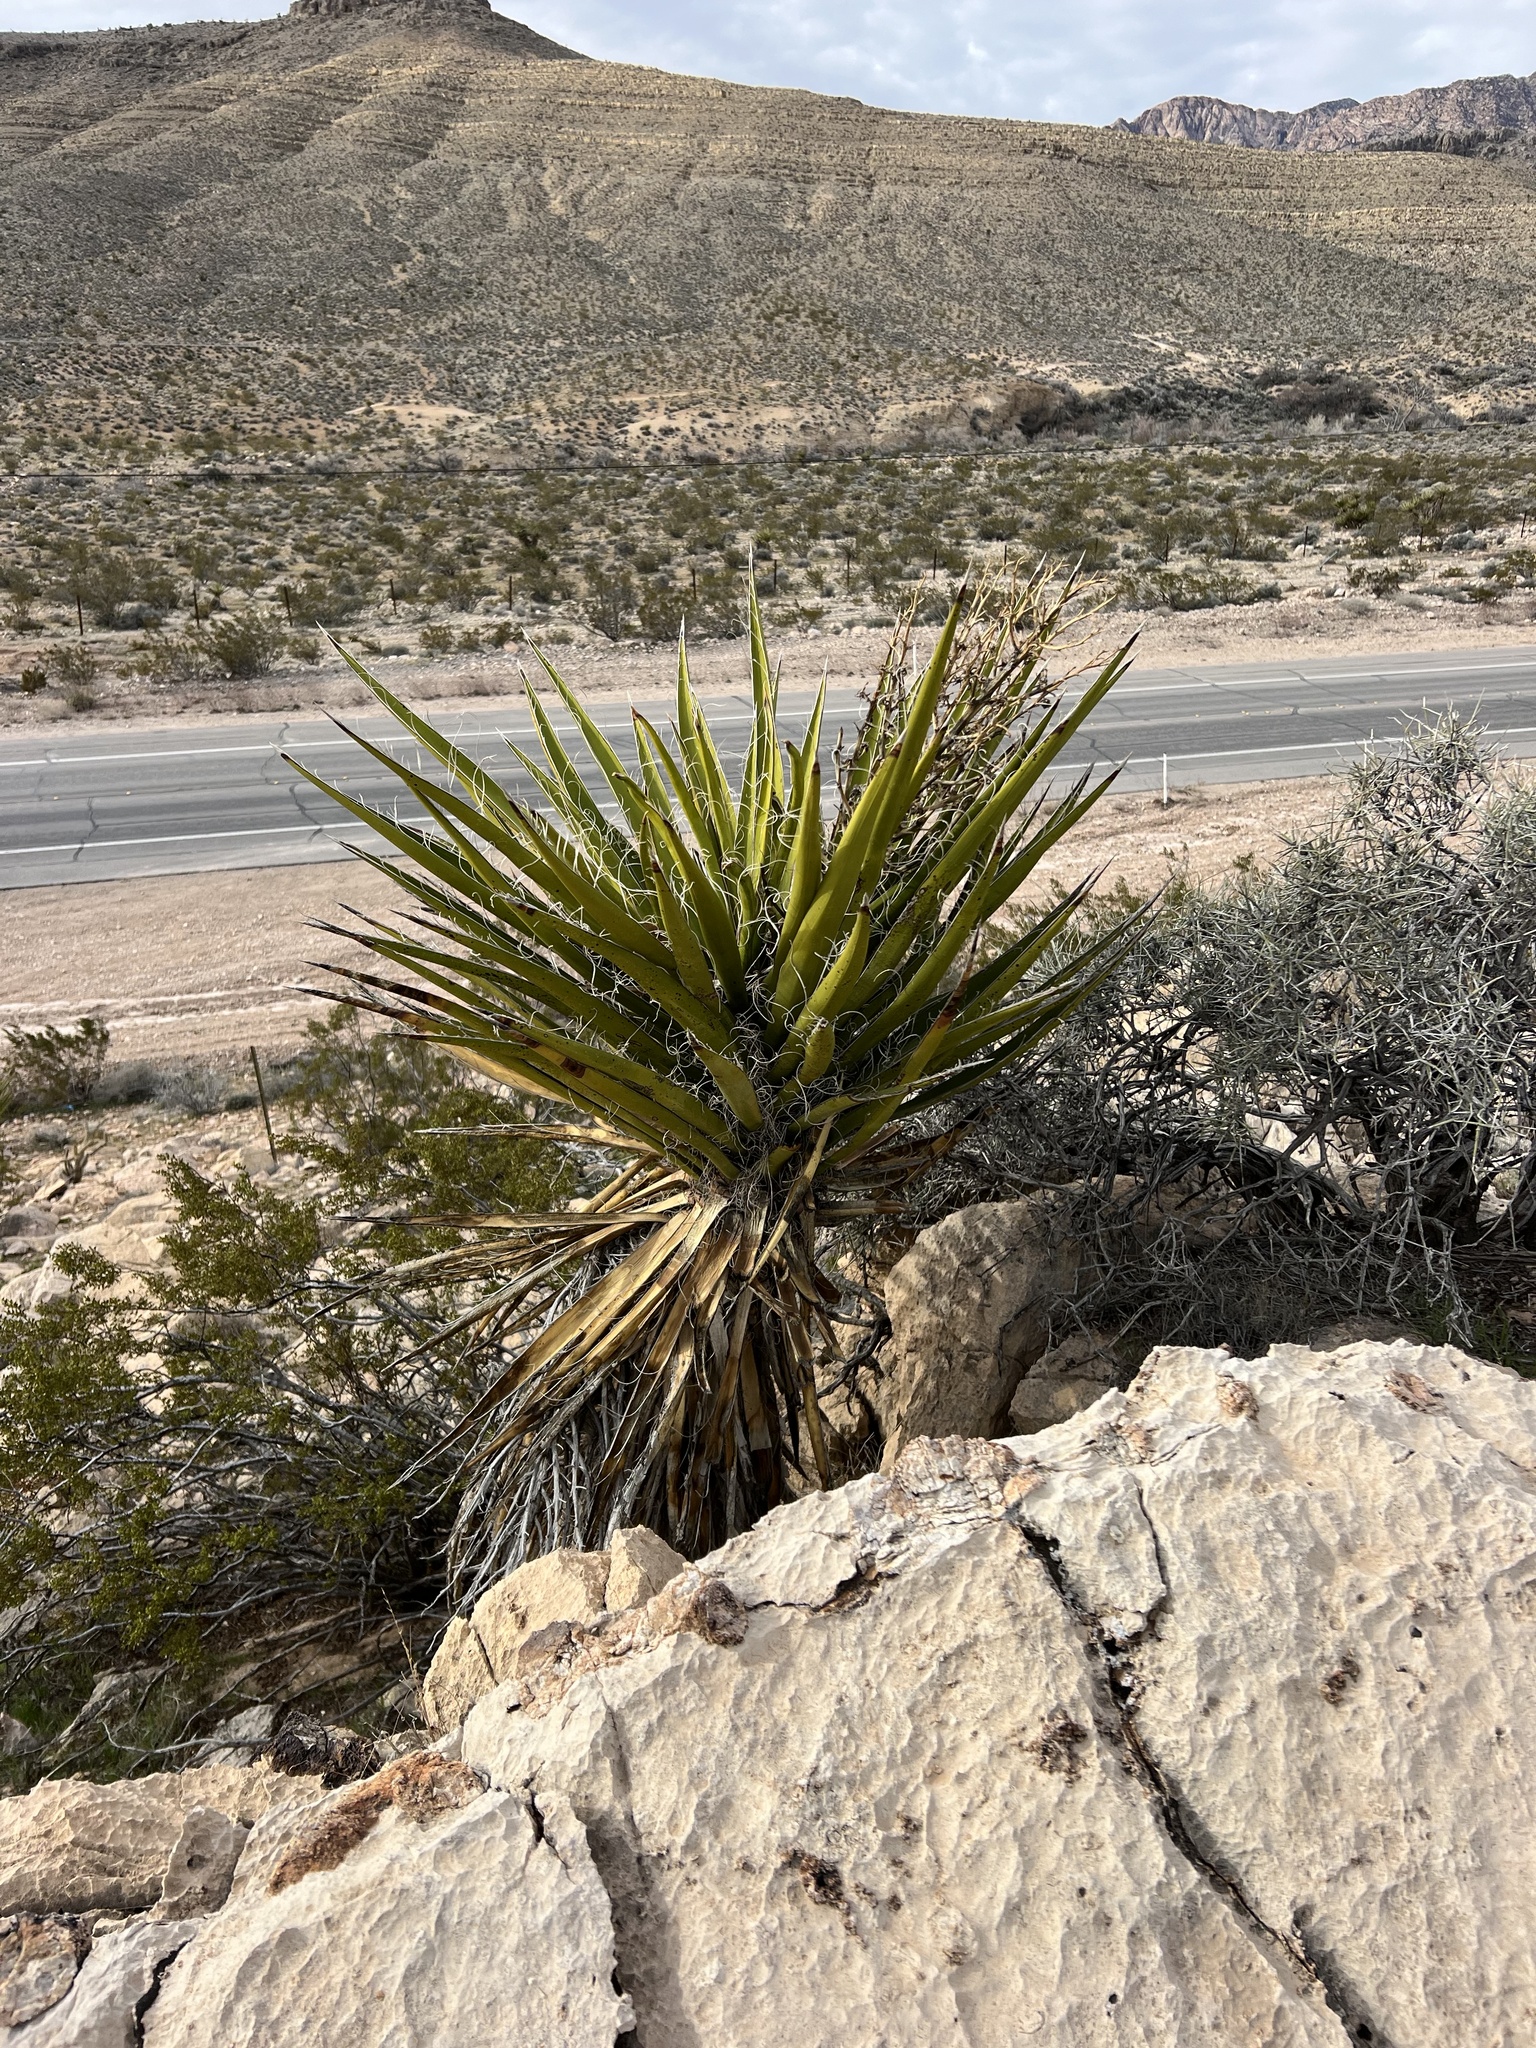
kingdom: Plantae
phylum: Tracheophyta
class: Liliopsida
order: Asparagales
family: Asparagaceae
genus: Yucca
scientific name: Yucca schidigera
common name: Mojave yucca
